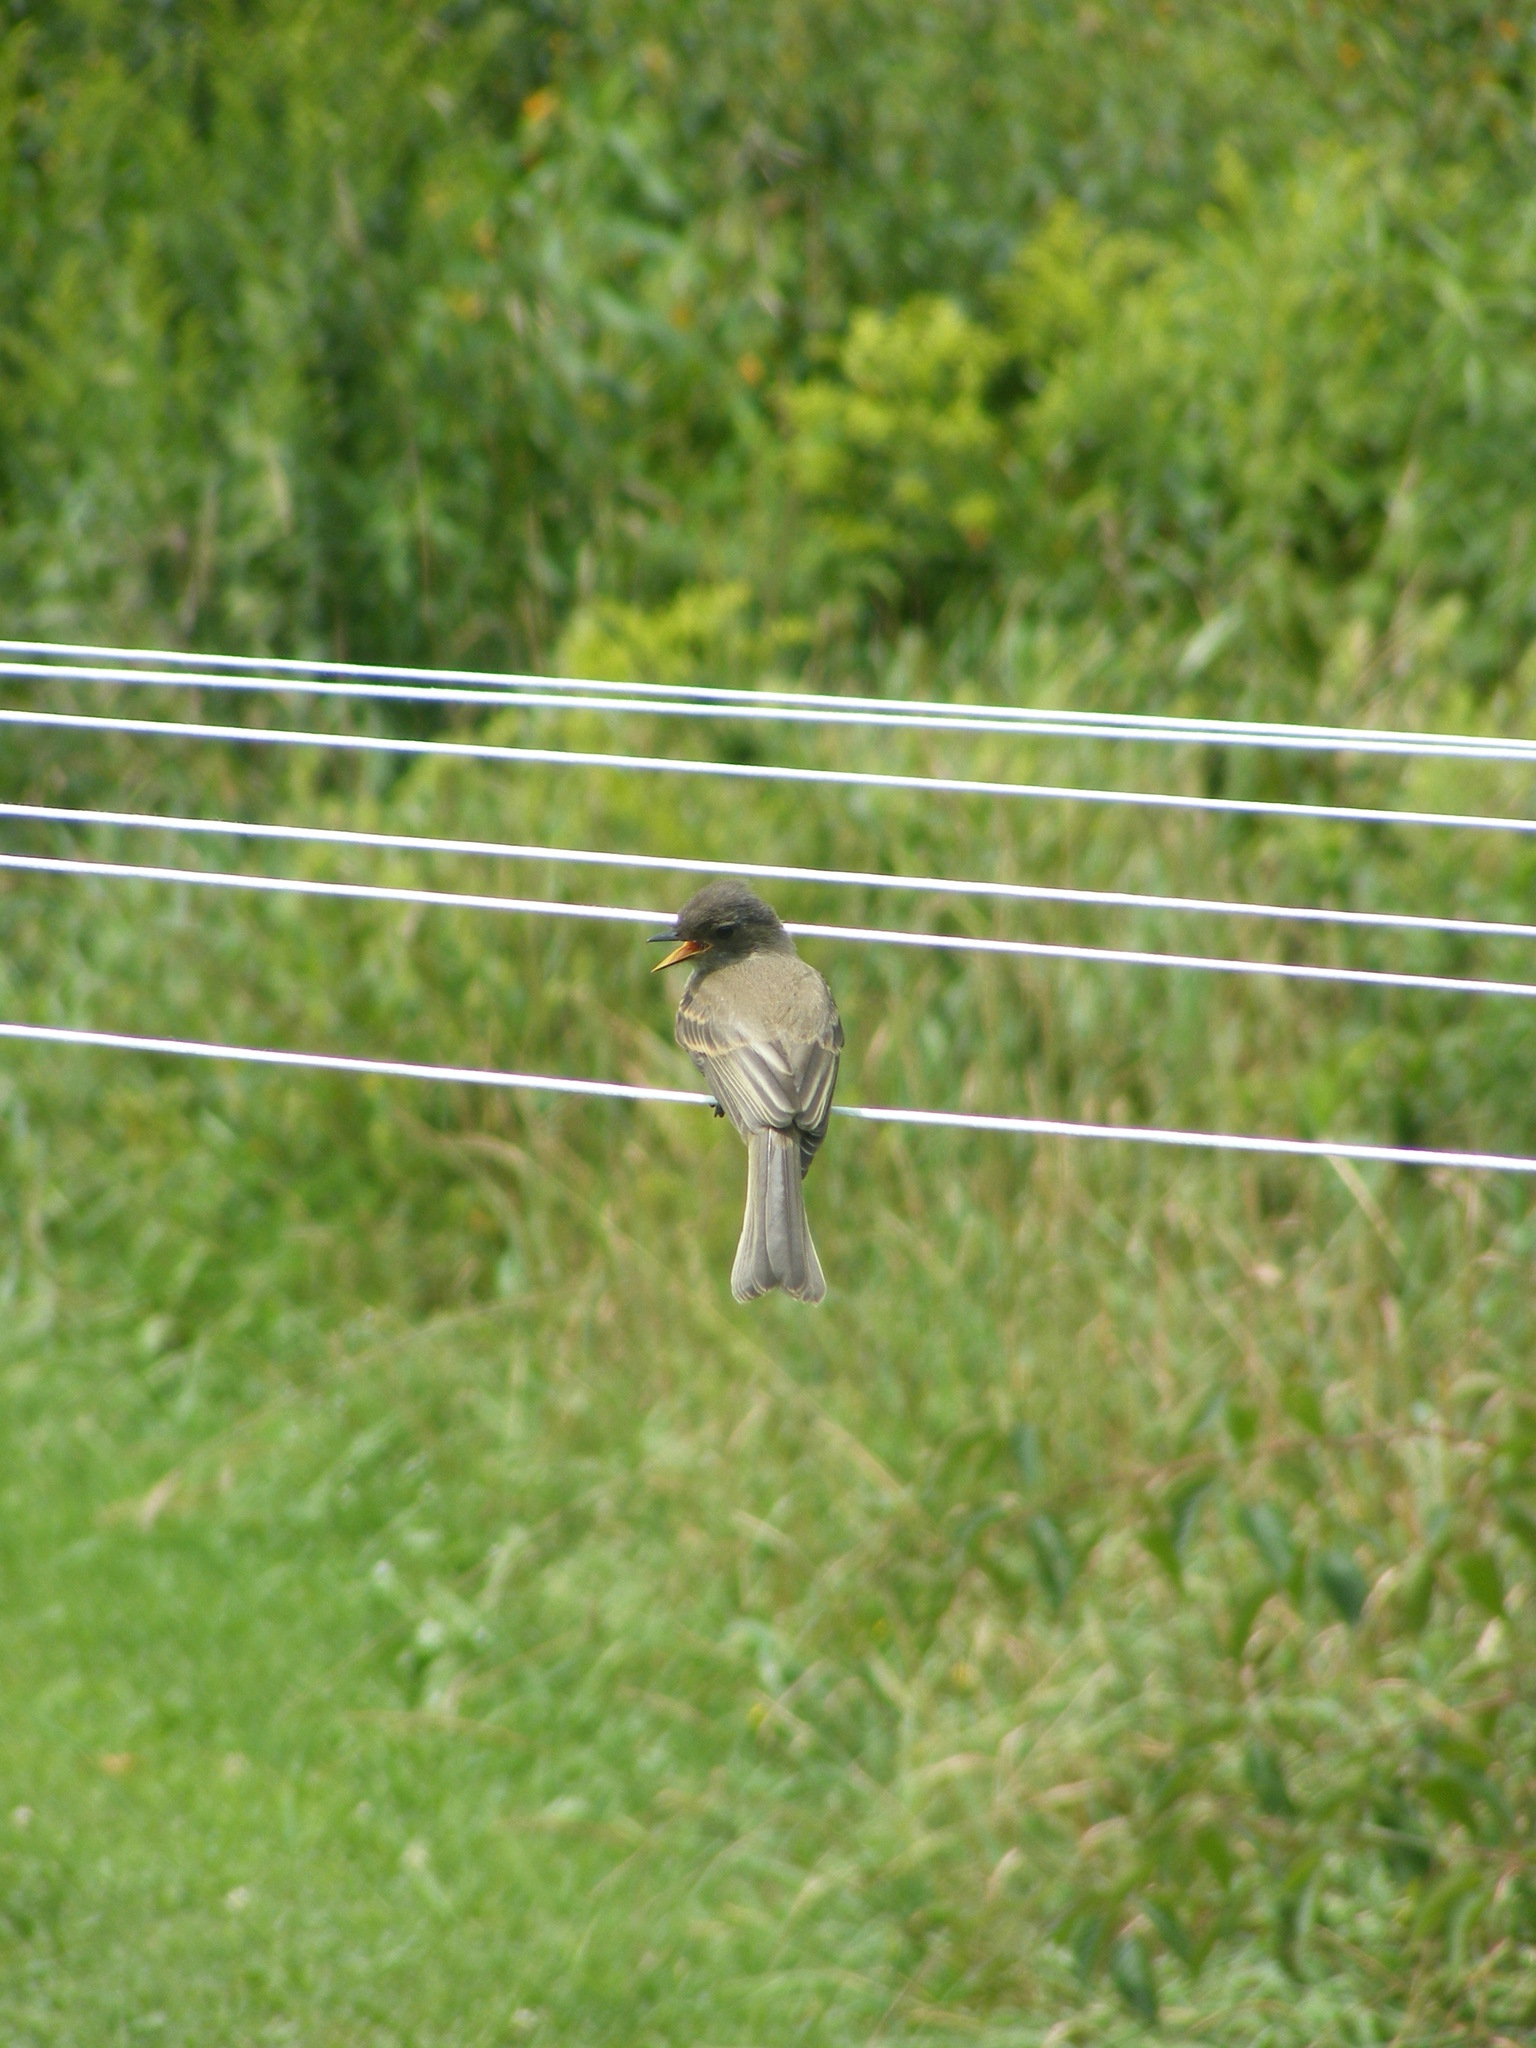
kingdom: Animalia
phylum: Chordata
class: Aves
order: Passeriformes
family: Tyrannidae
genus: Sayornis
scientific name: Sayornis phoebe
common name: Eastern phoebe
